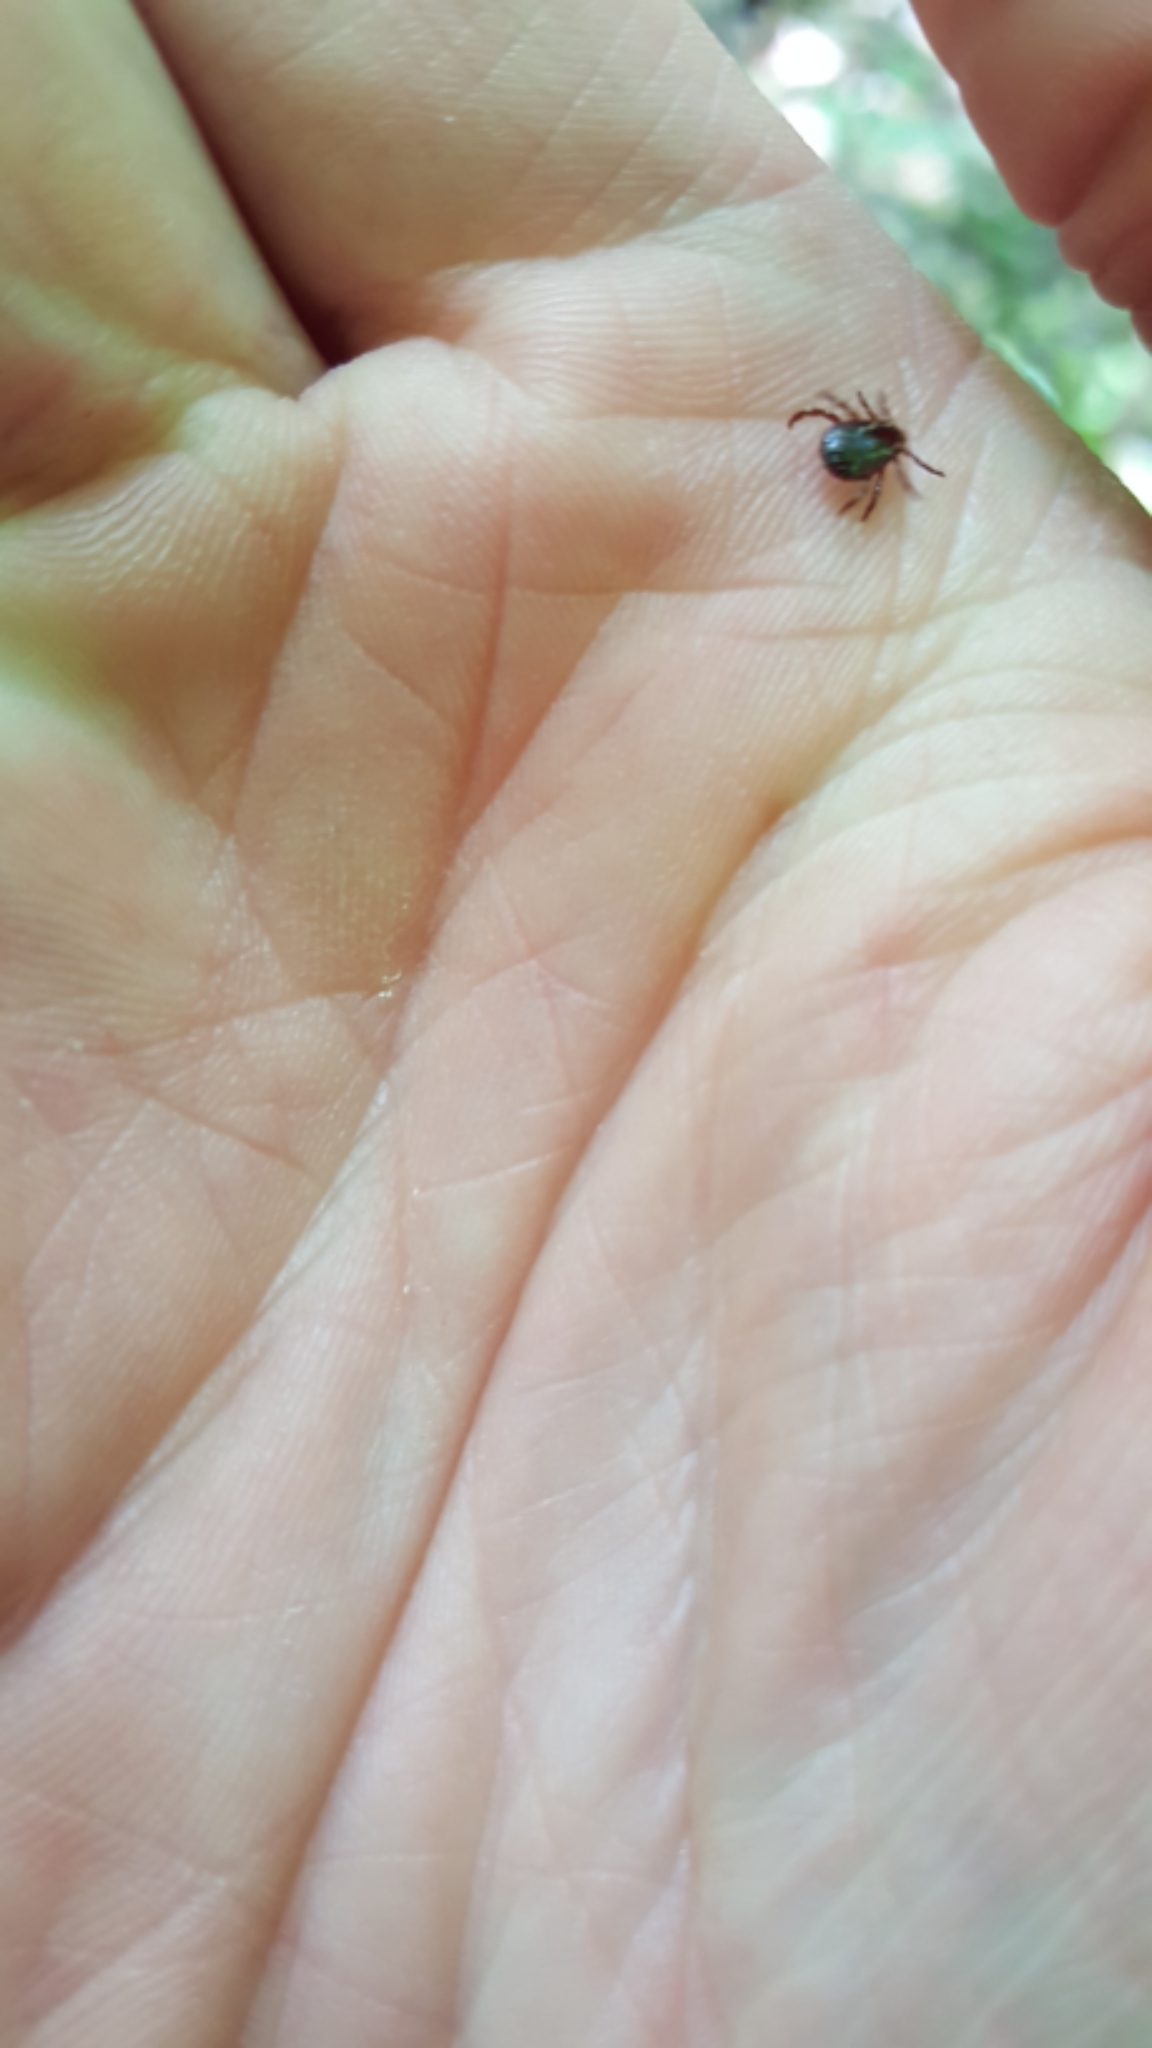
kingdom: Animalia
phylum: Arthropoda
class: Arachnida
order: Ixodida
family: Ixodidae
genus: Dermacentor
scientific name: Dermacentor variabilis
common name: American dog tick
